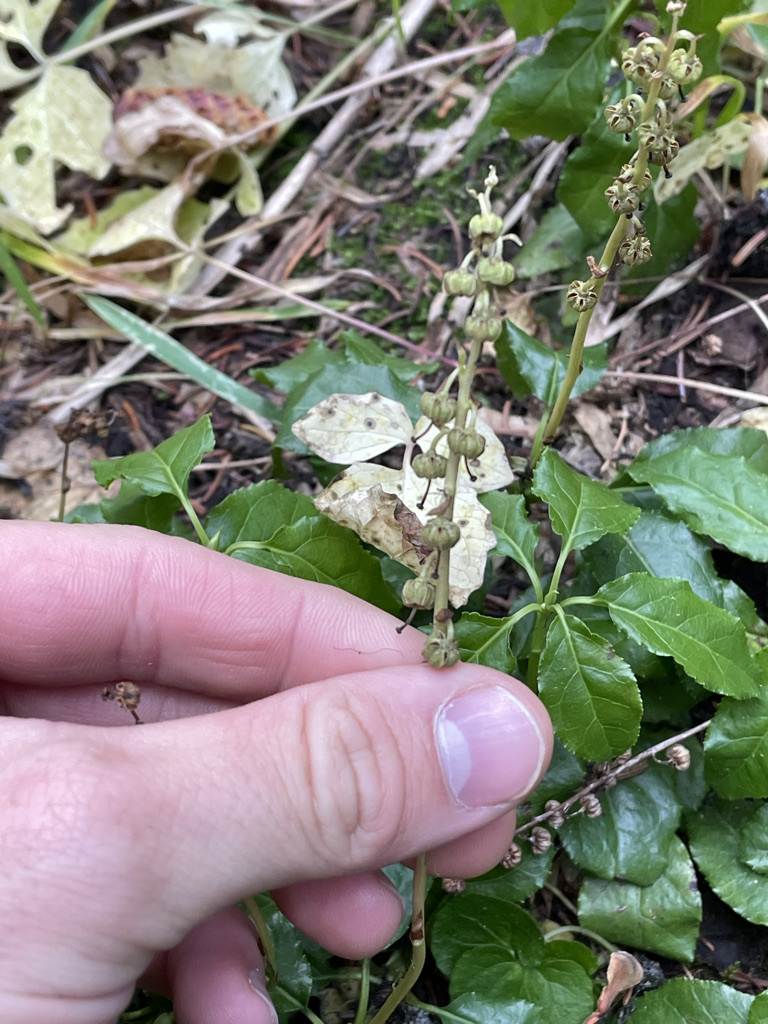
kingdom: Plantae
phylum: Tracheophyta
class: Magnoliopsida
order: Ericales
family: Ericaceae
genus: Orthilia
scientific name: Orthilia secunda
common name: One-sided orthilia
